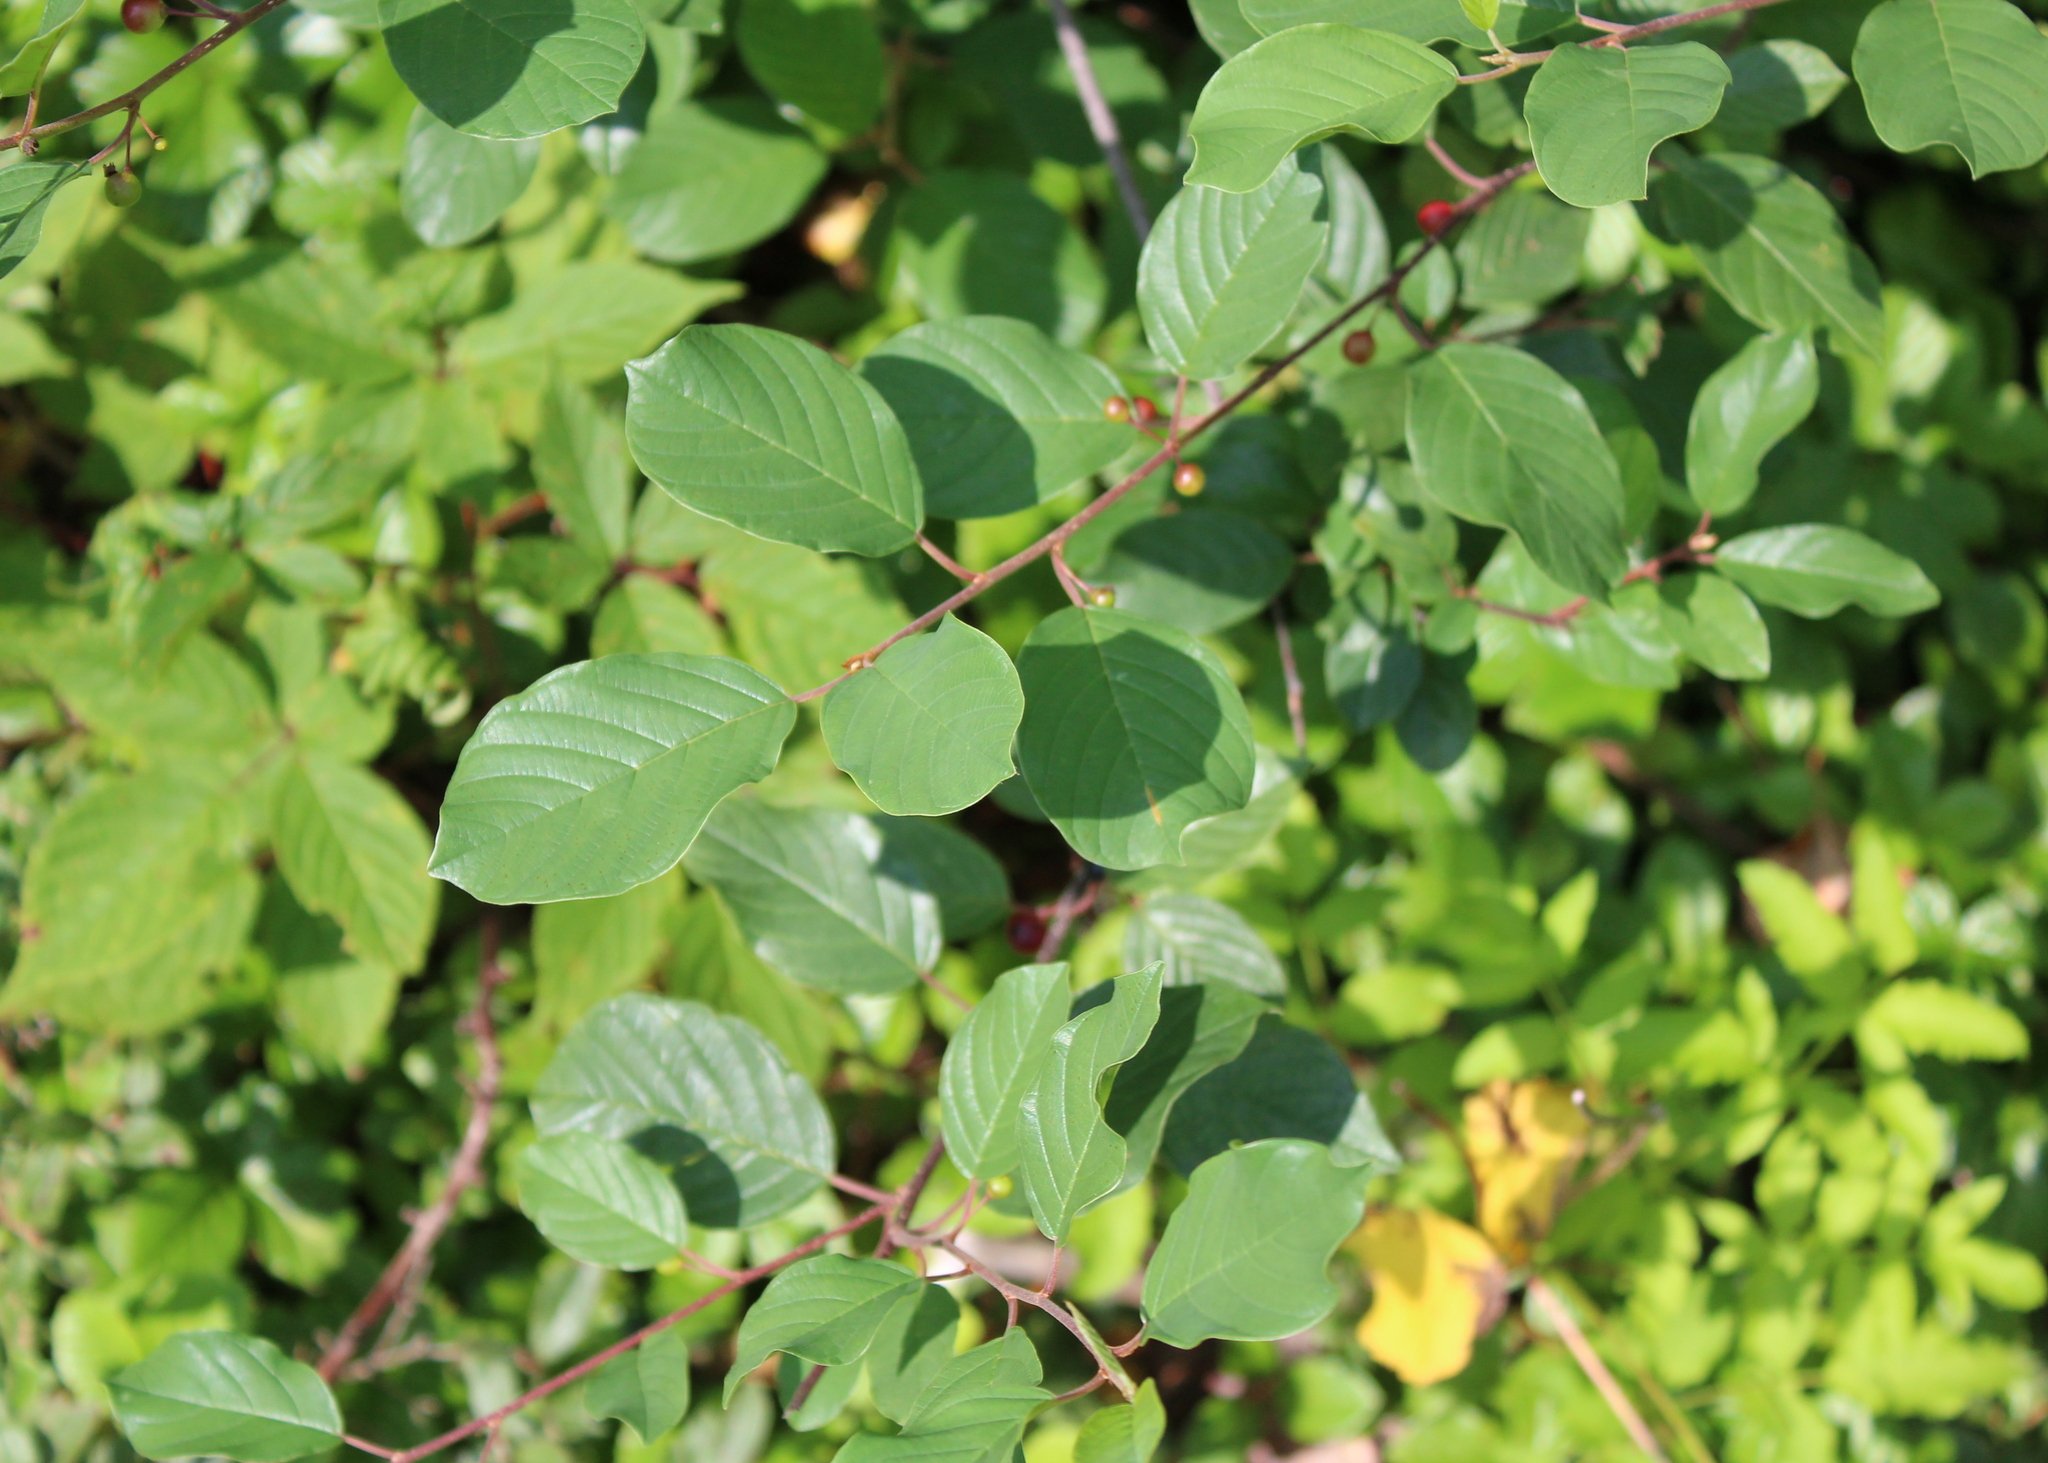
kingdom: Plantae
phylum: Tracheophyta
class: Magnoliopsida
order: Rosales
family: Rhamnaceae
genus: Frangula
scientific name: Frangula alnus
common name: Alder buckthorn
